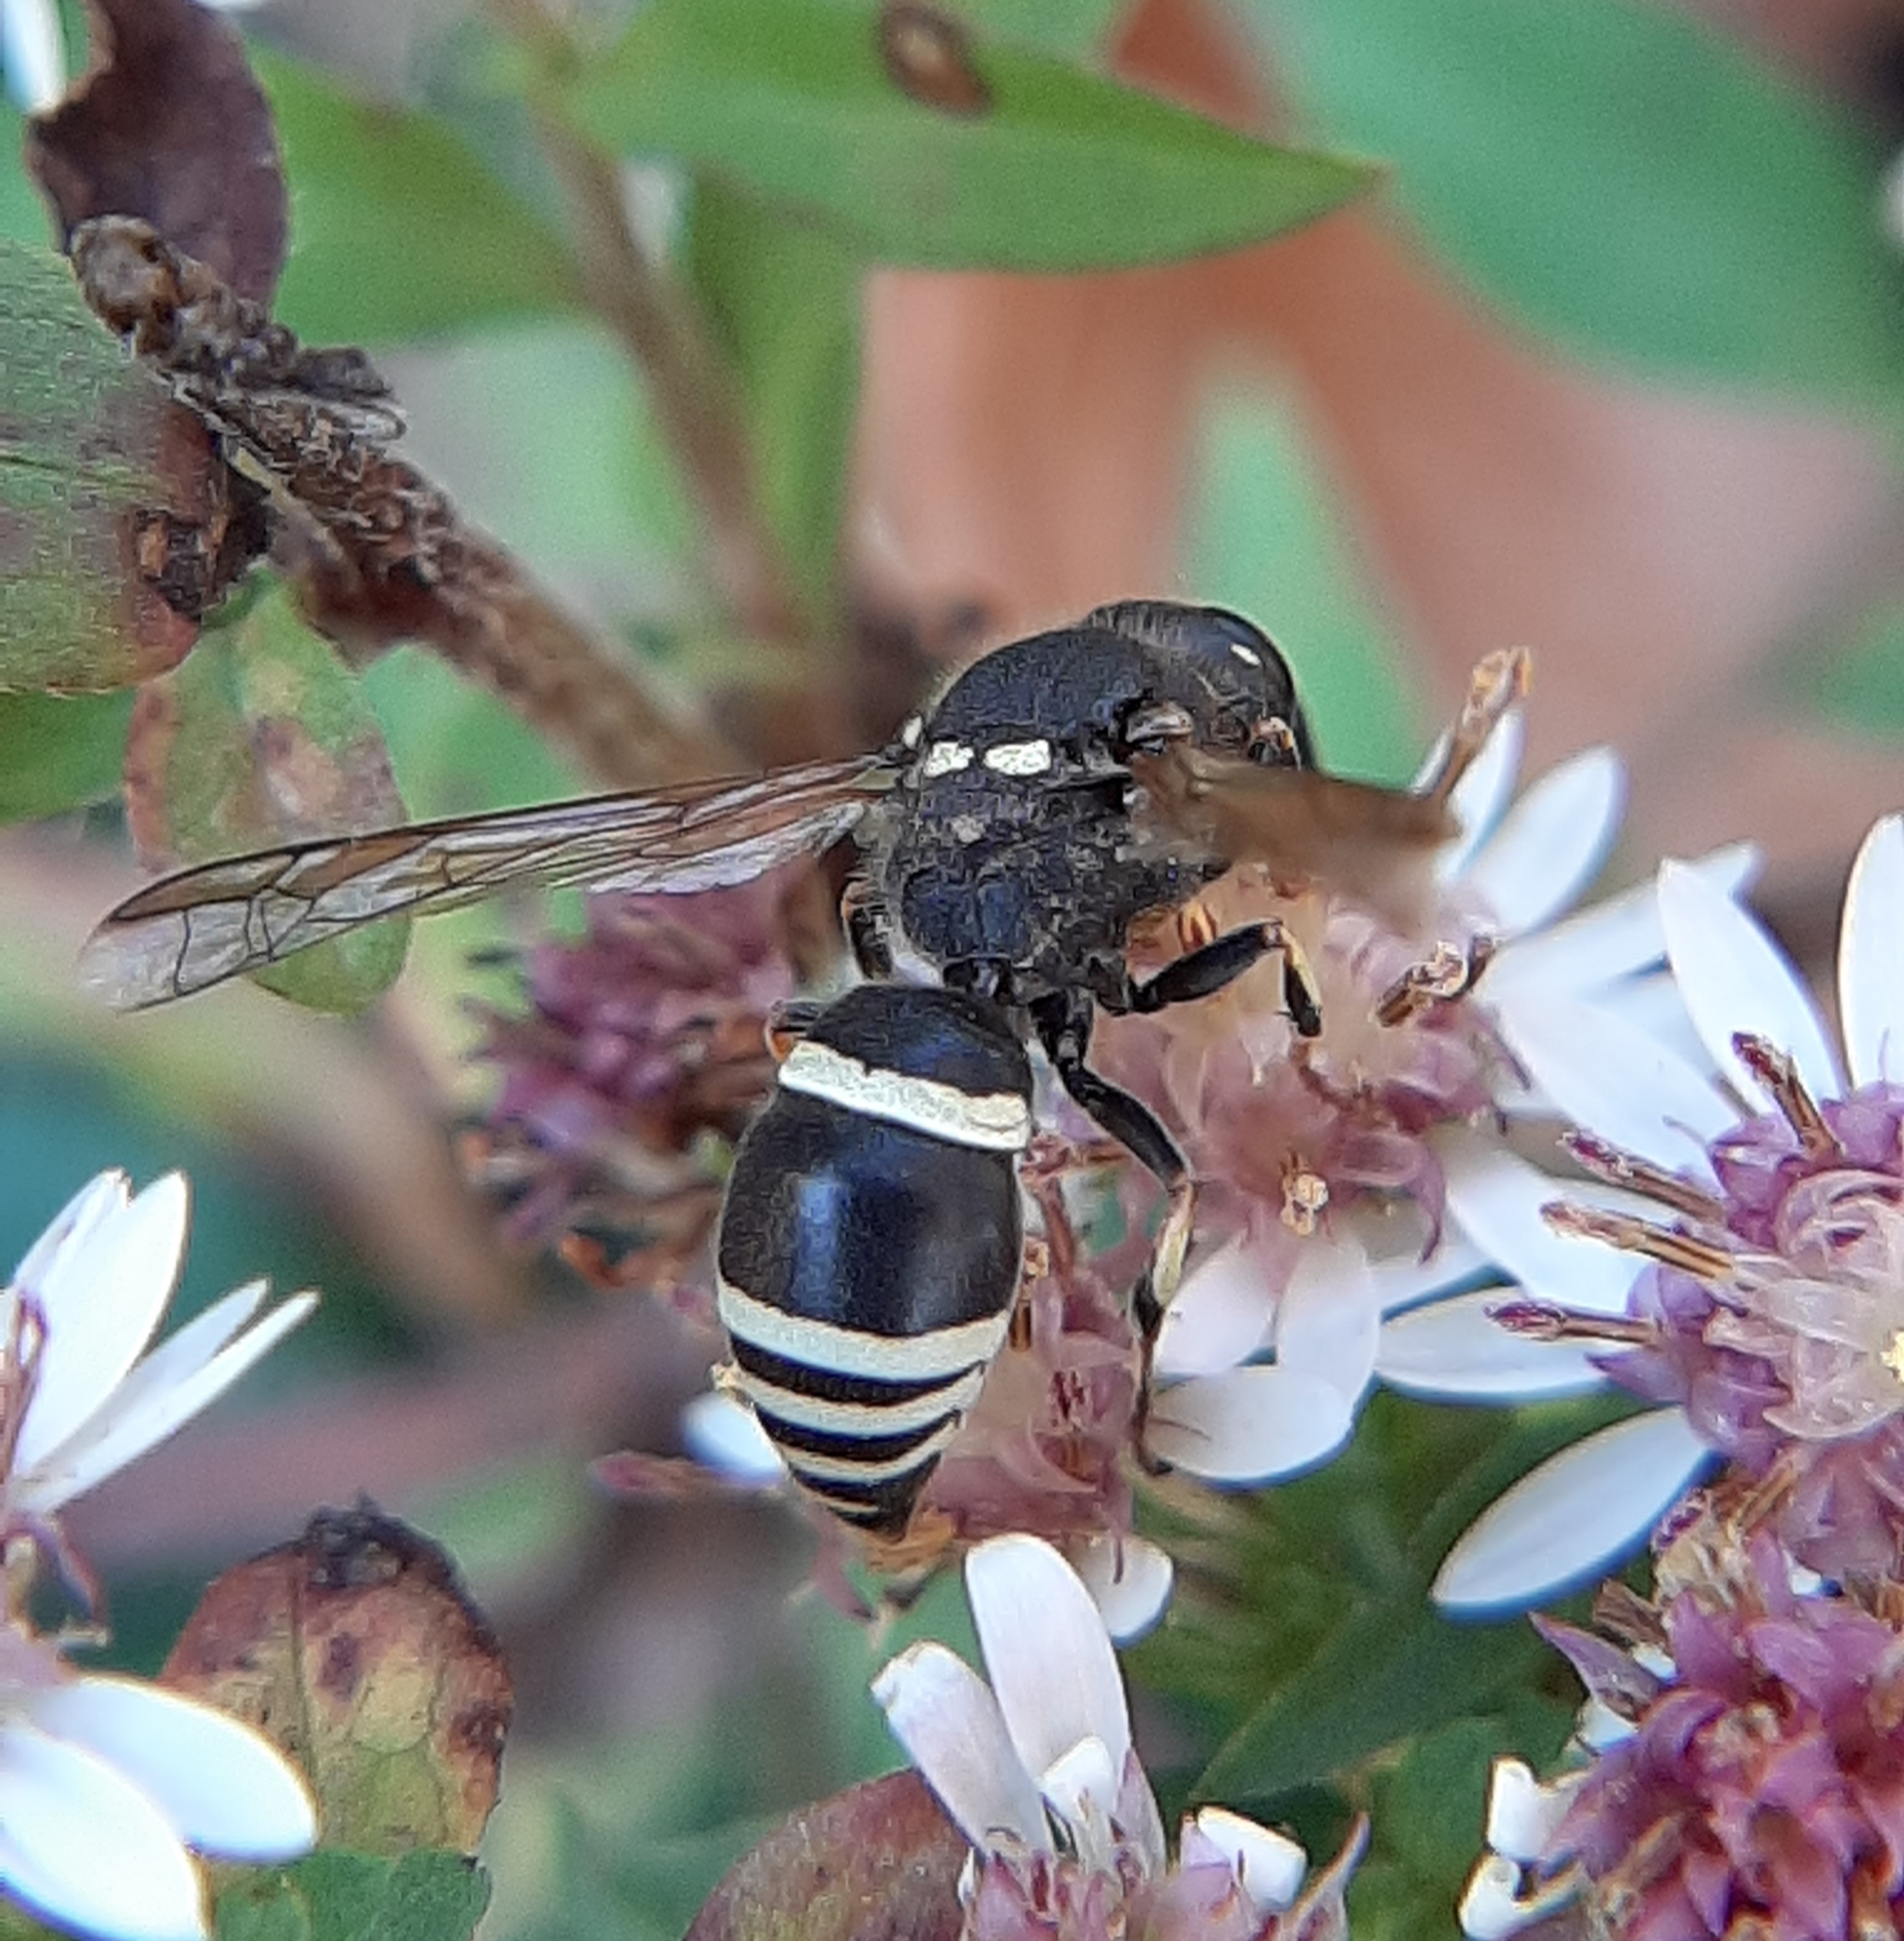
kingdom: Animalia
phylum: Arthropoda
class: Insecta
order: Hymenoptera
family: Vespidae
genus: Ancistrocerus
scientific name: Ancistrocerus albophaleratus
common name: White-banded potter wasp
